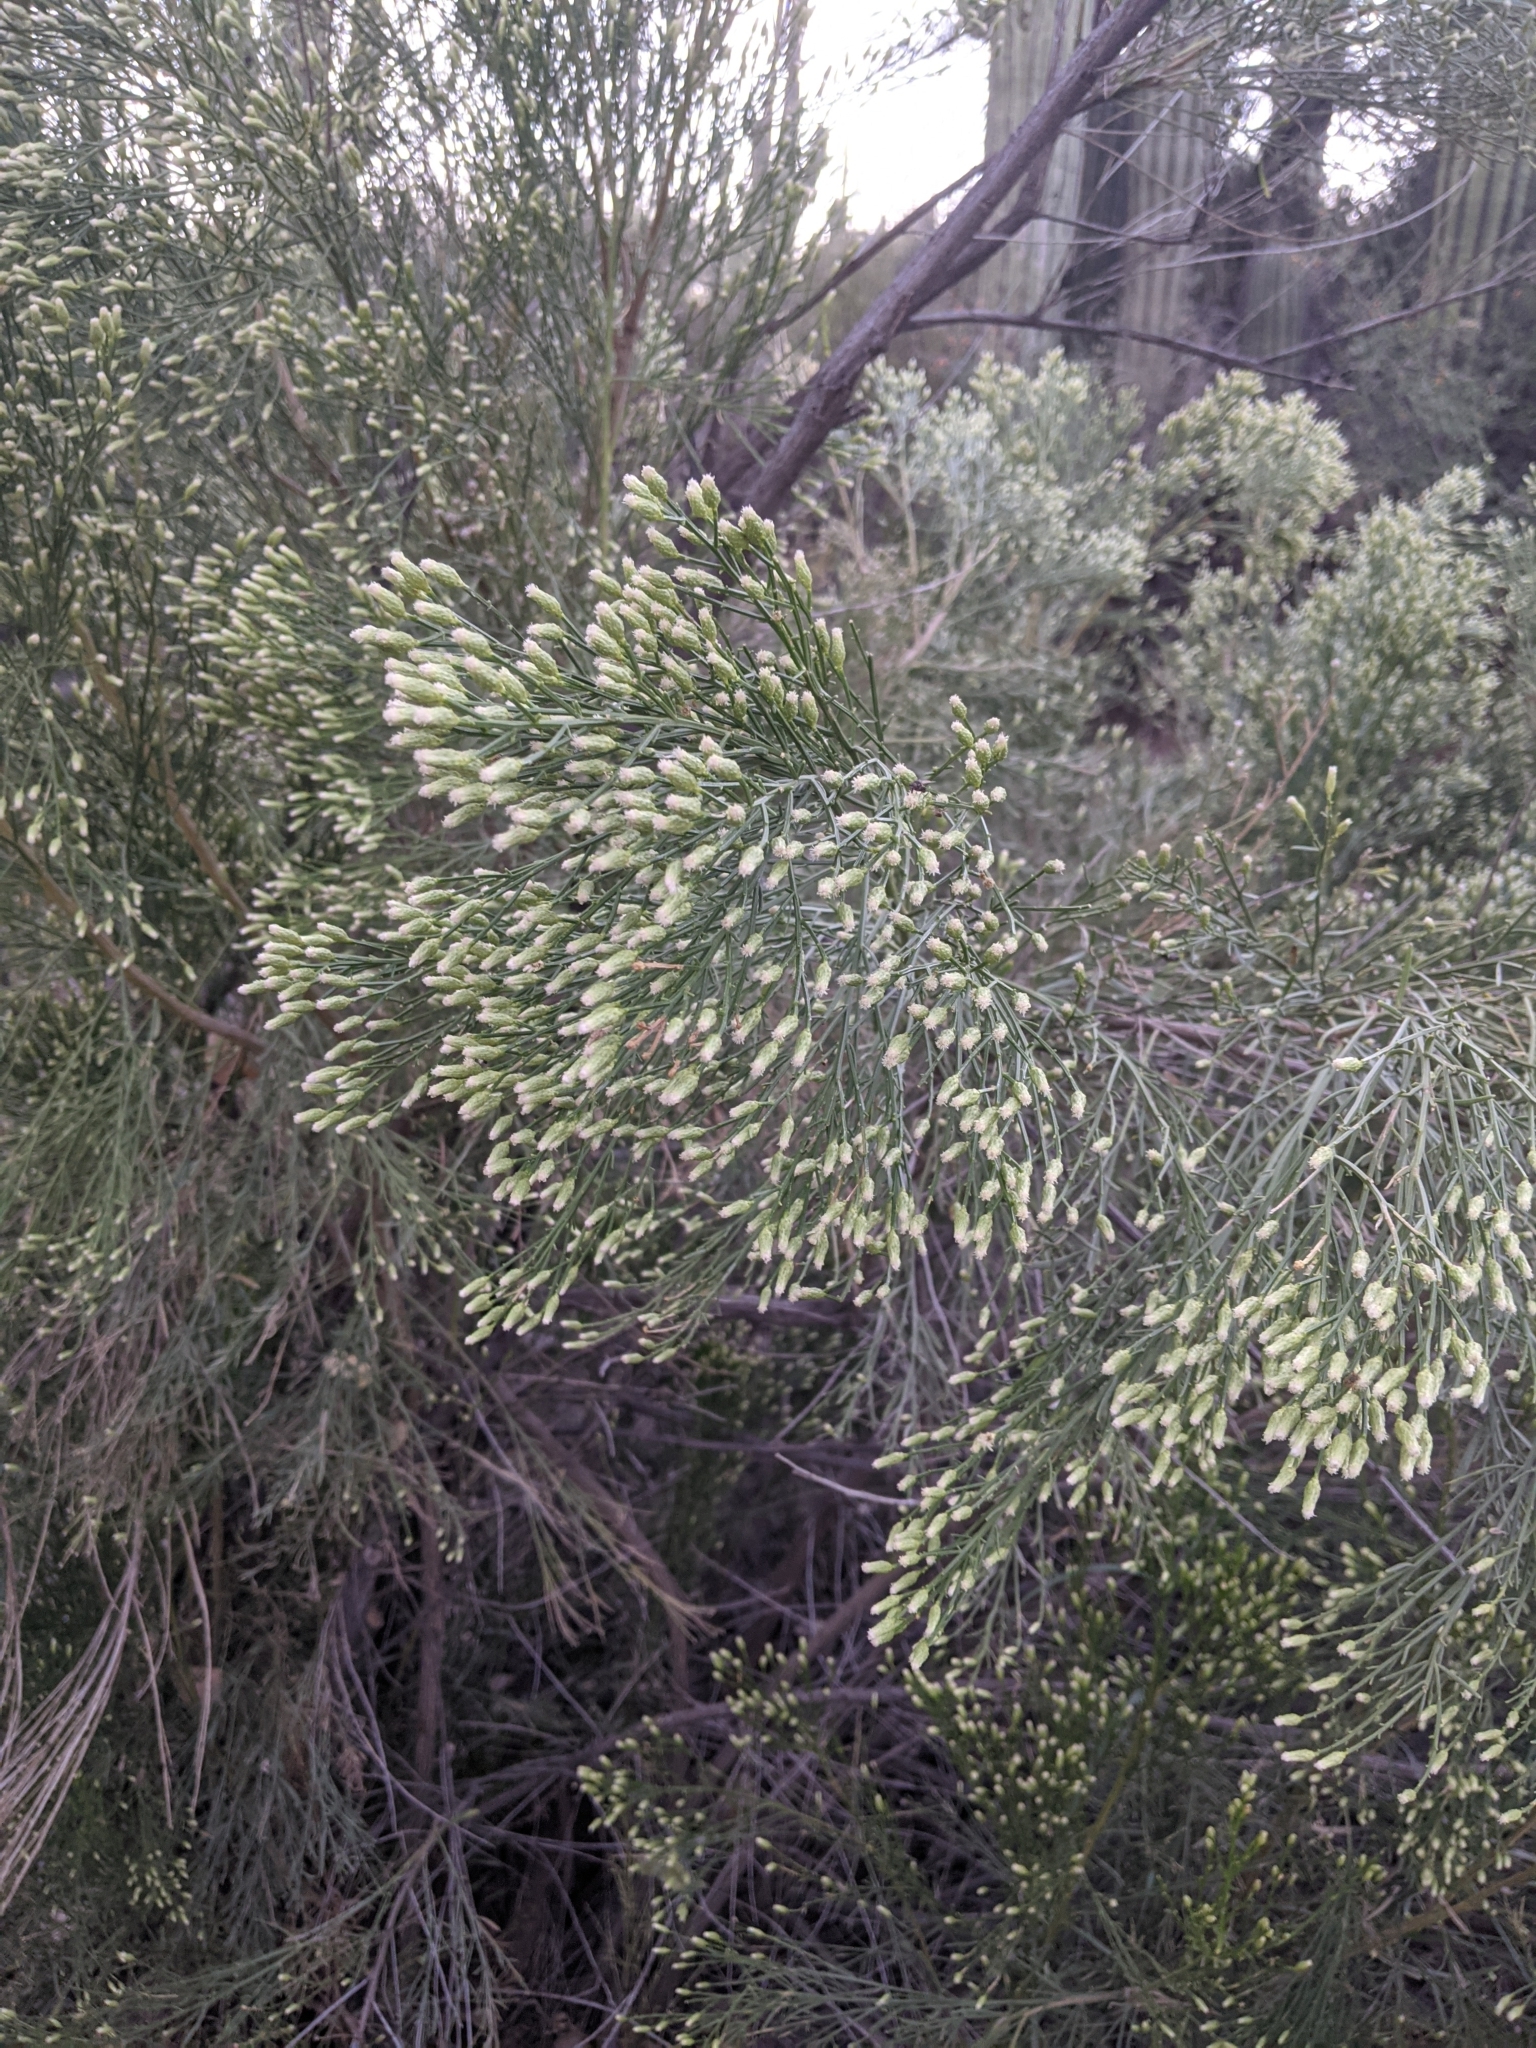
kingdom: Plantae
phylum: Tracheophyta
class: Magnoliopsida
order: Asterales
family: Asteraceae
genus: Baccharis
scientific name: Baccharis sarothroides
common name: Desert-broom
